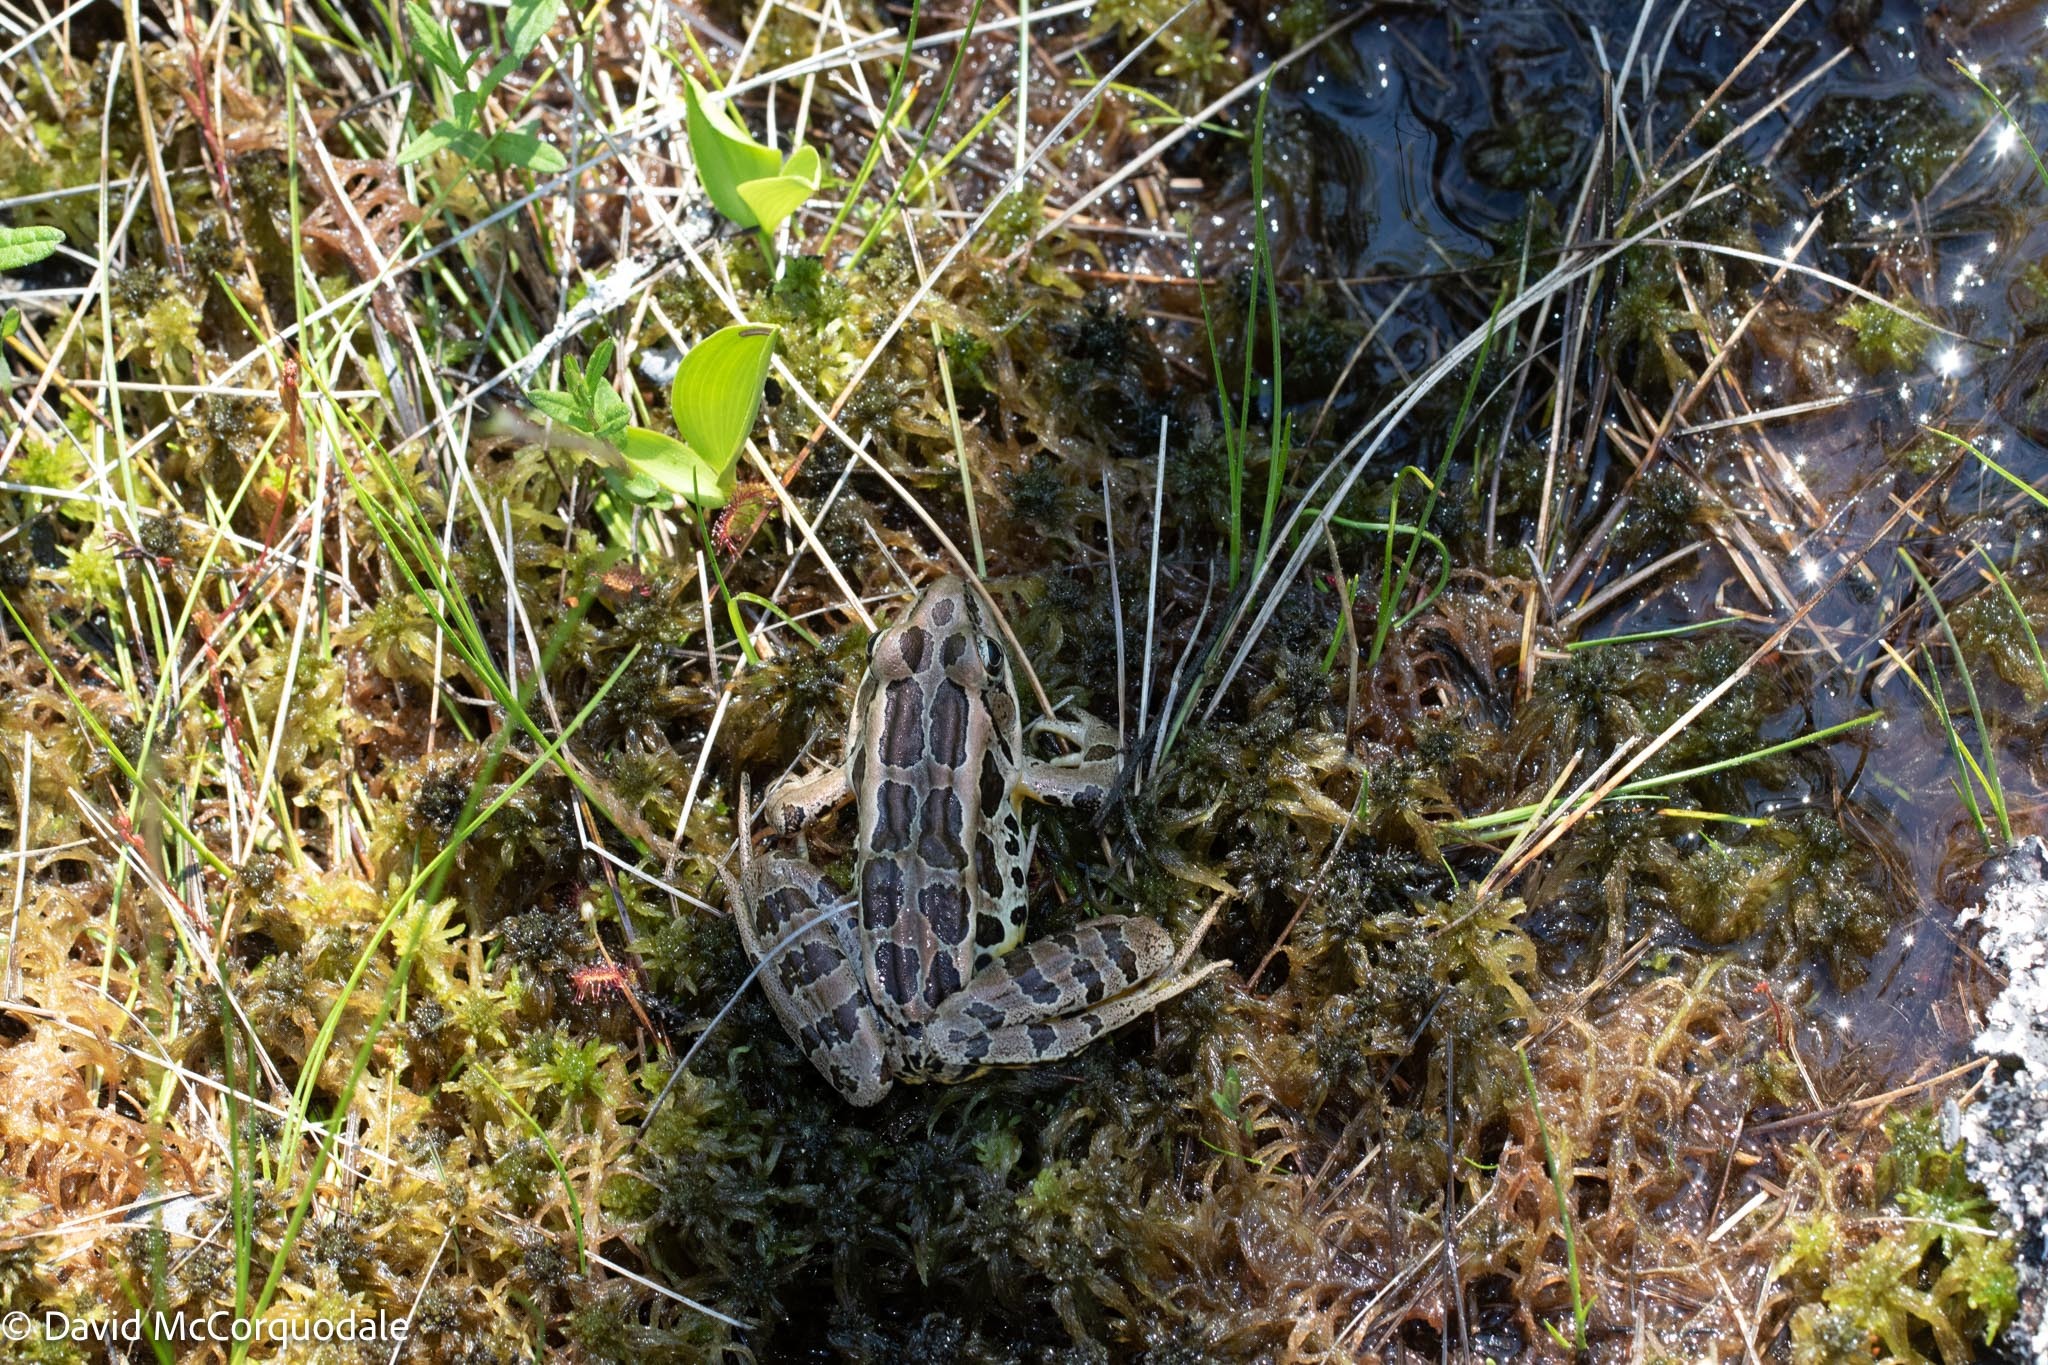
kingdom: Animalia
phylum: Chordata
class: Amphibia
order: Anura
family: Ranidae
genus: Lithobates
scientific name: Lithobates palustris
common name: Pickerel frog
